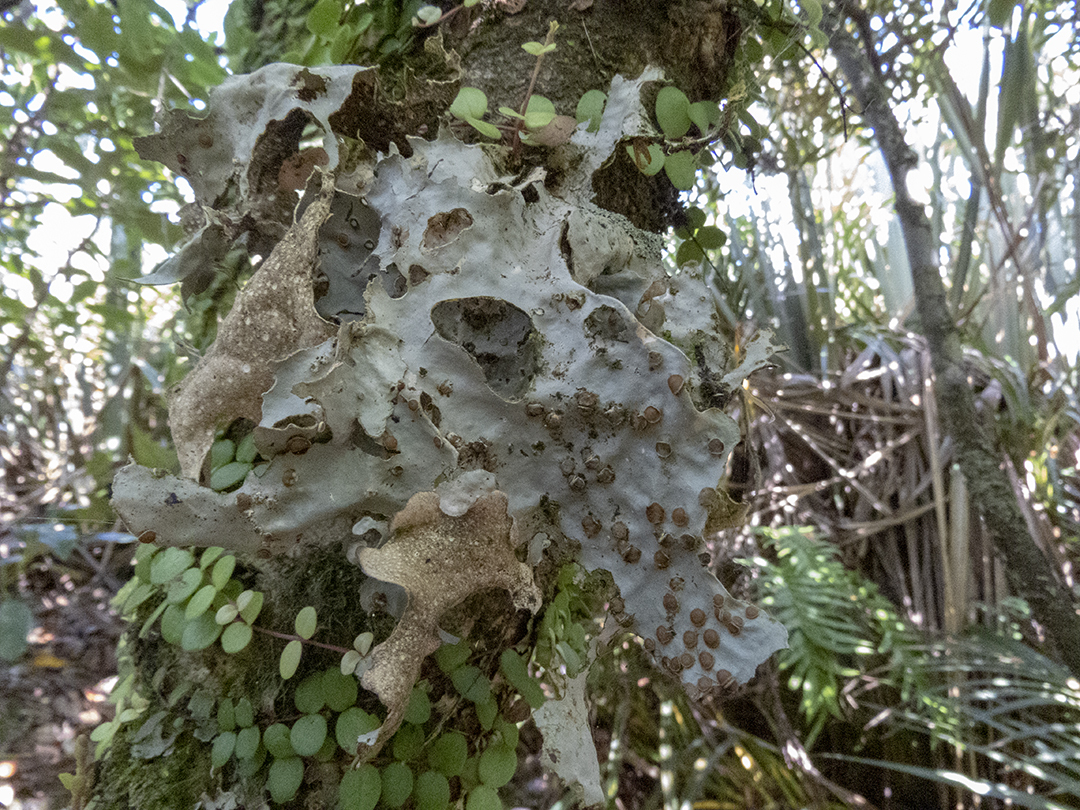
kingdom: Fungi
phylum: Ascomycota
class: Lecanoromycetes
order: Peltigerales
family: Lobariaceae
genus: Sticta
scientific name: Sticta latifrons
